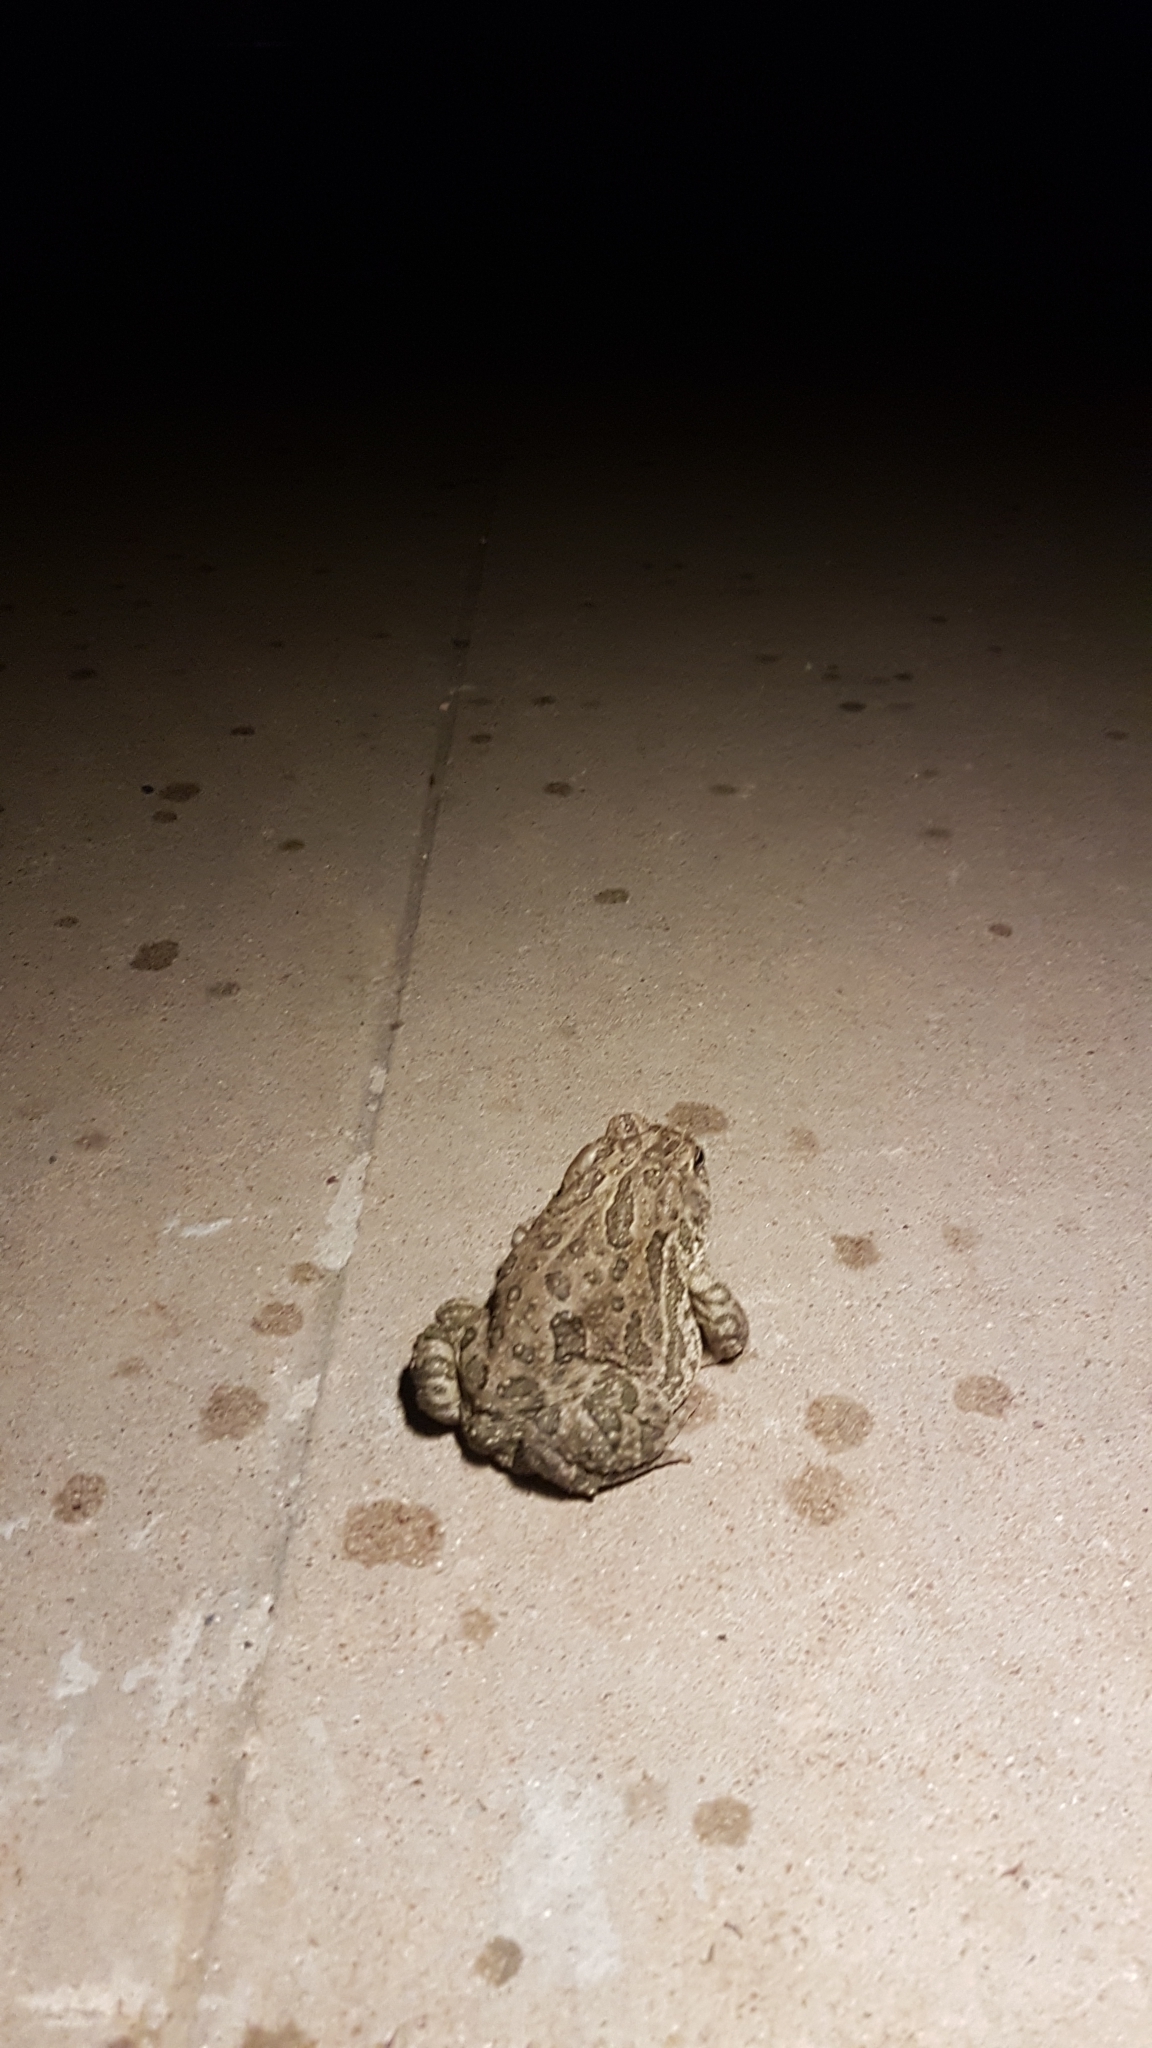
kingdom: Animalia
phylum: Chordata
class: Amphibia
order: Anura
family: Bufonidae
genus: Anaxyrus
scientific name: Anaxyrus cognatus
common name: Great plains toad
